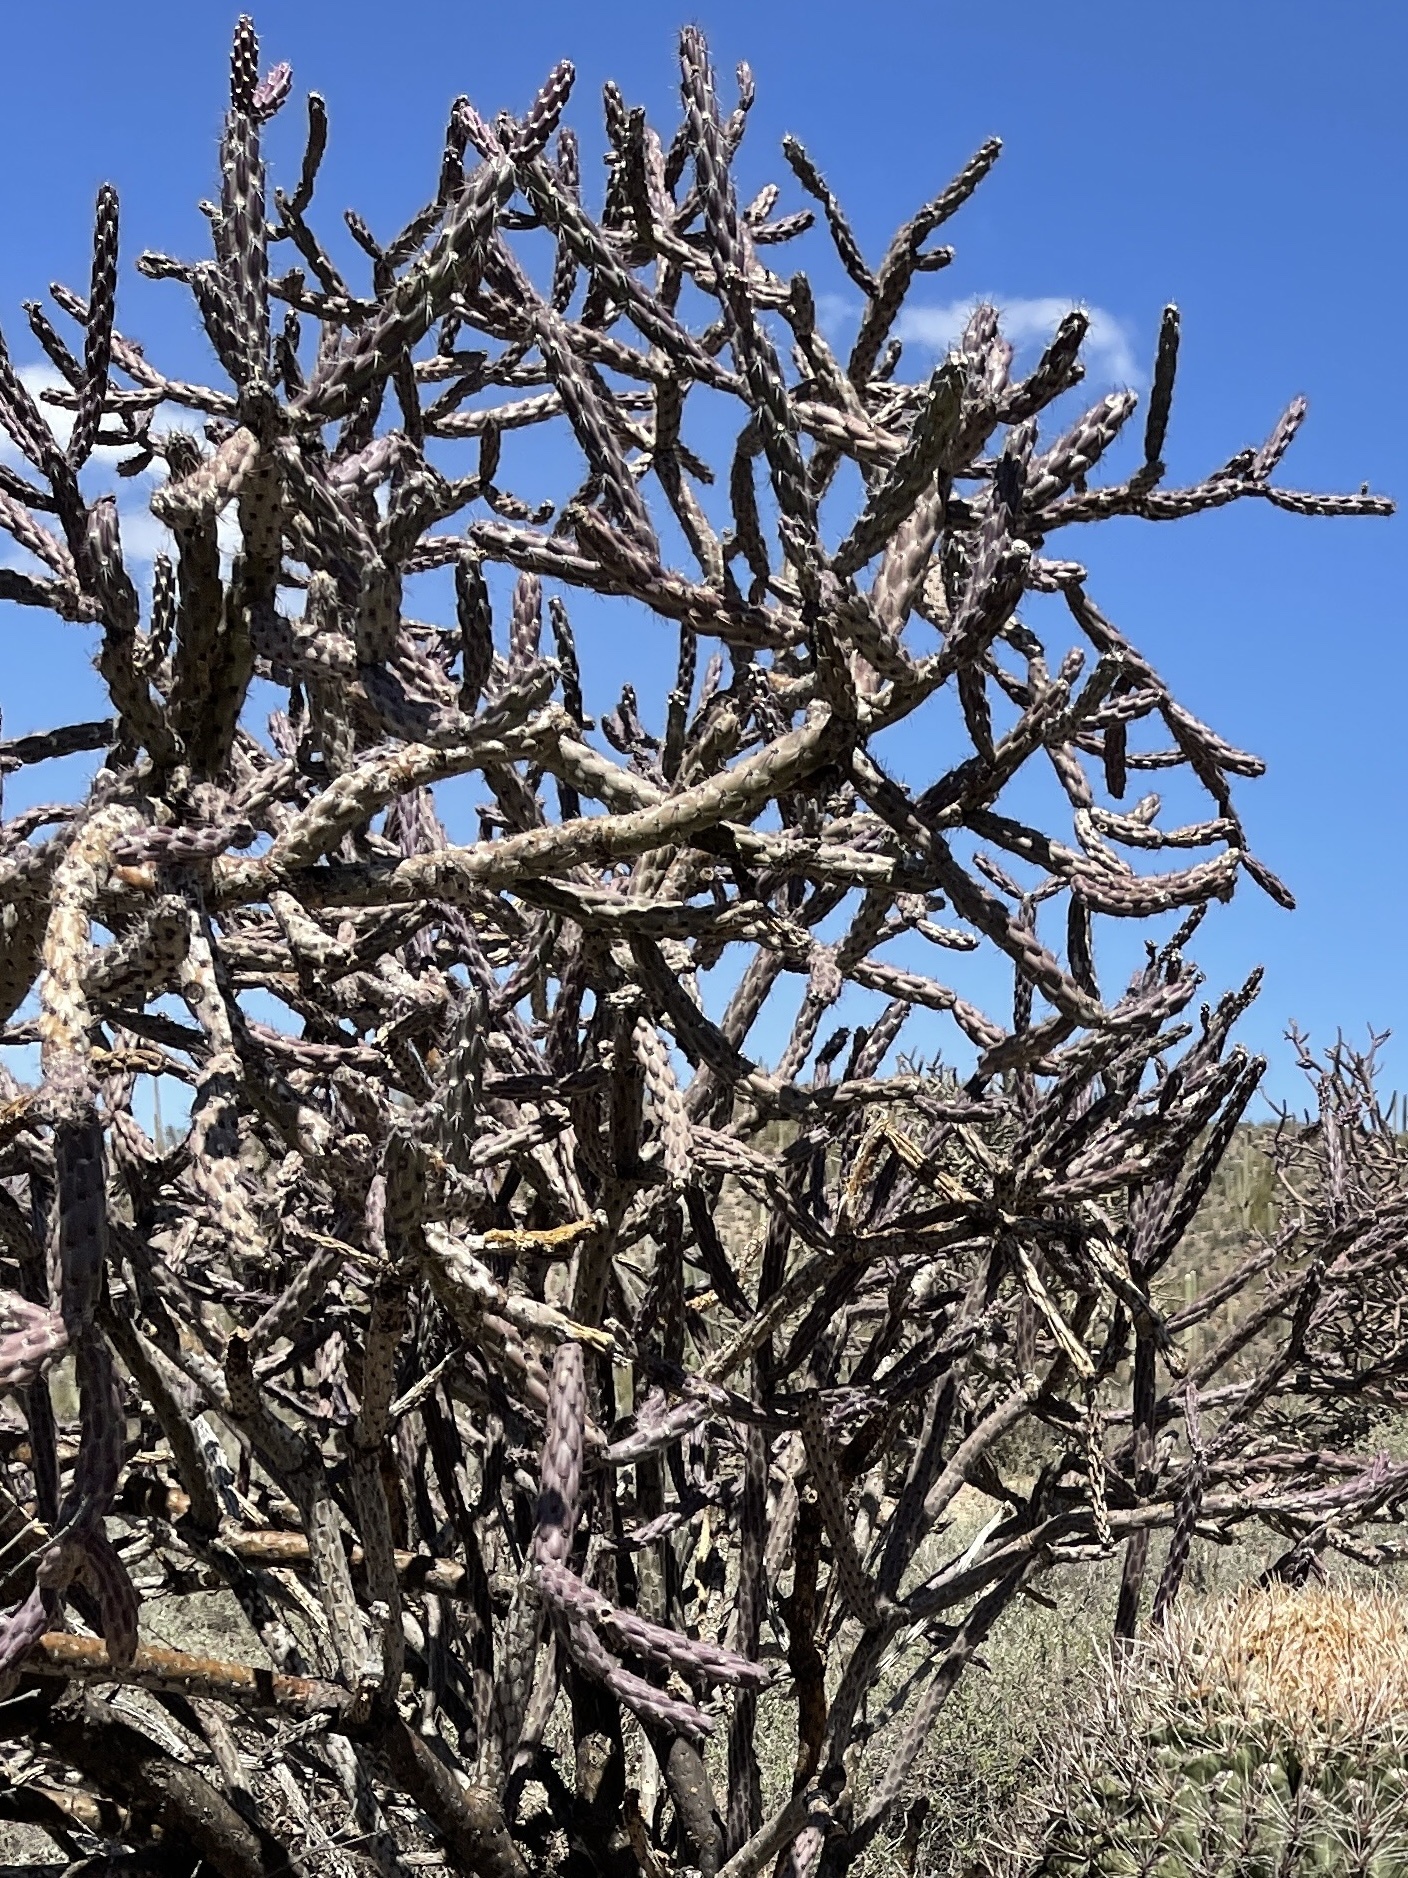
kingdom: Plantae
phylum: Tracheophyta
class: Magnoliopsida
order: Caryophyllales
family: Cactaceae
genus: Cylindropuntia
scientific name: Cylindropuntia thurberi
